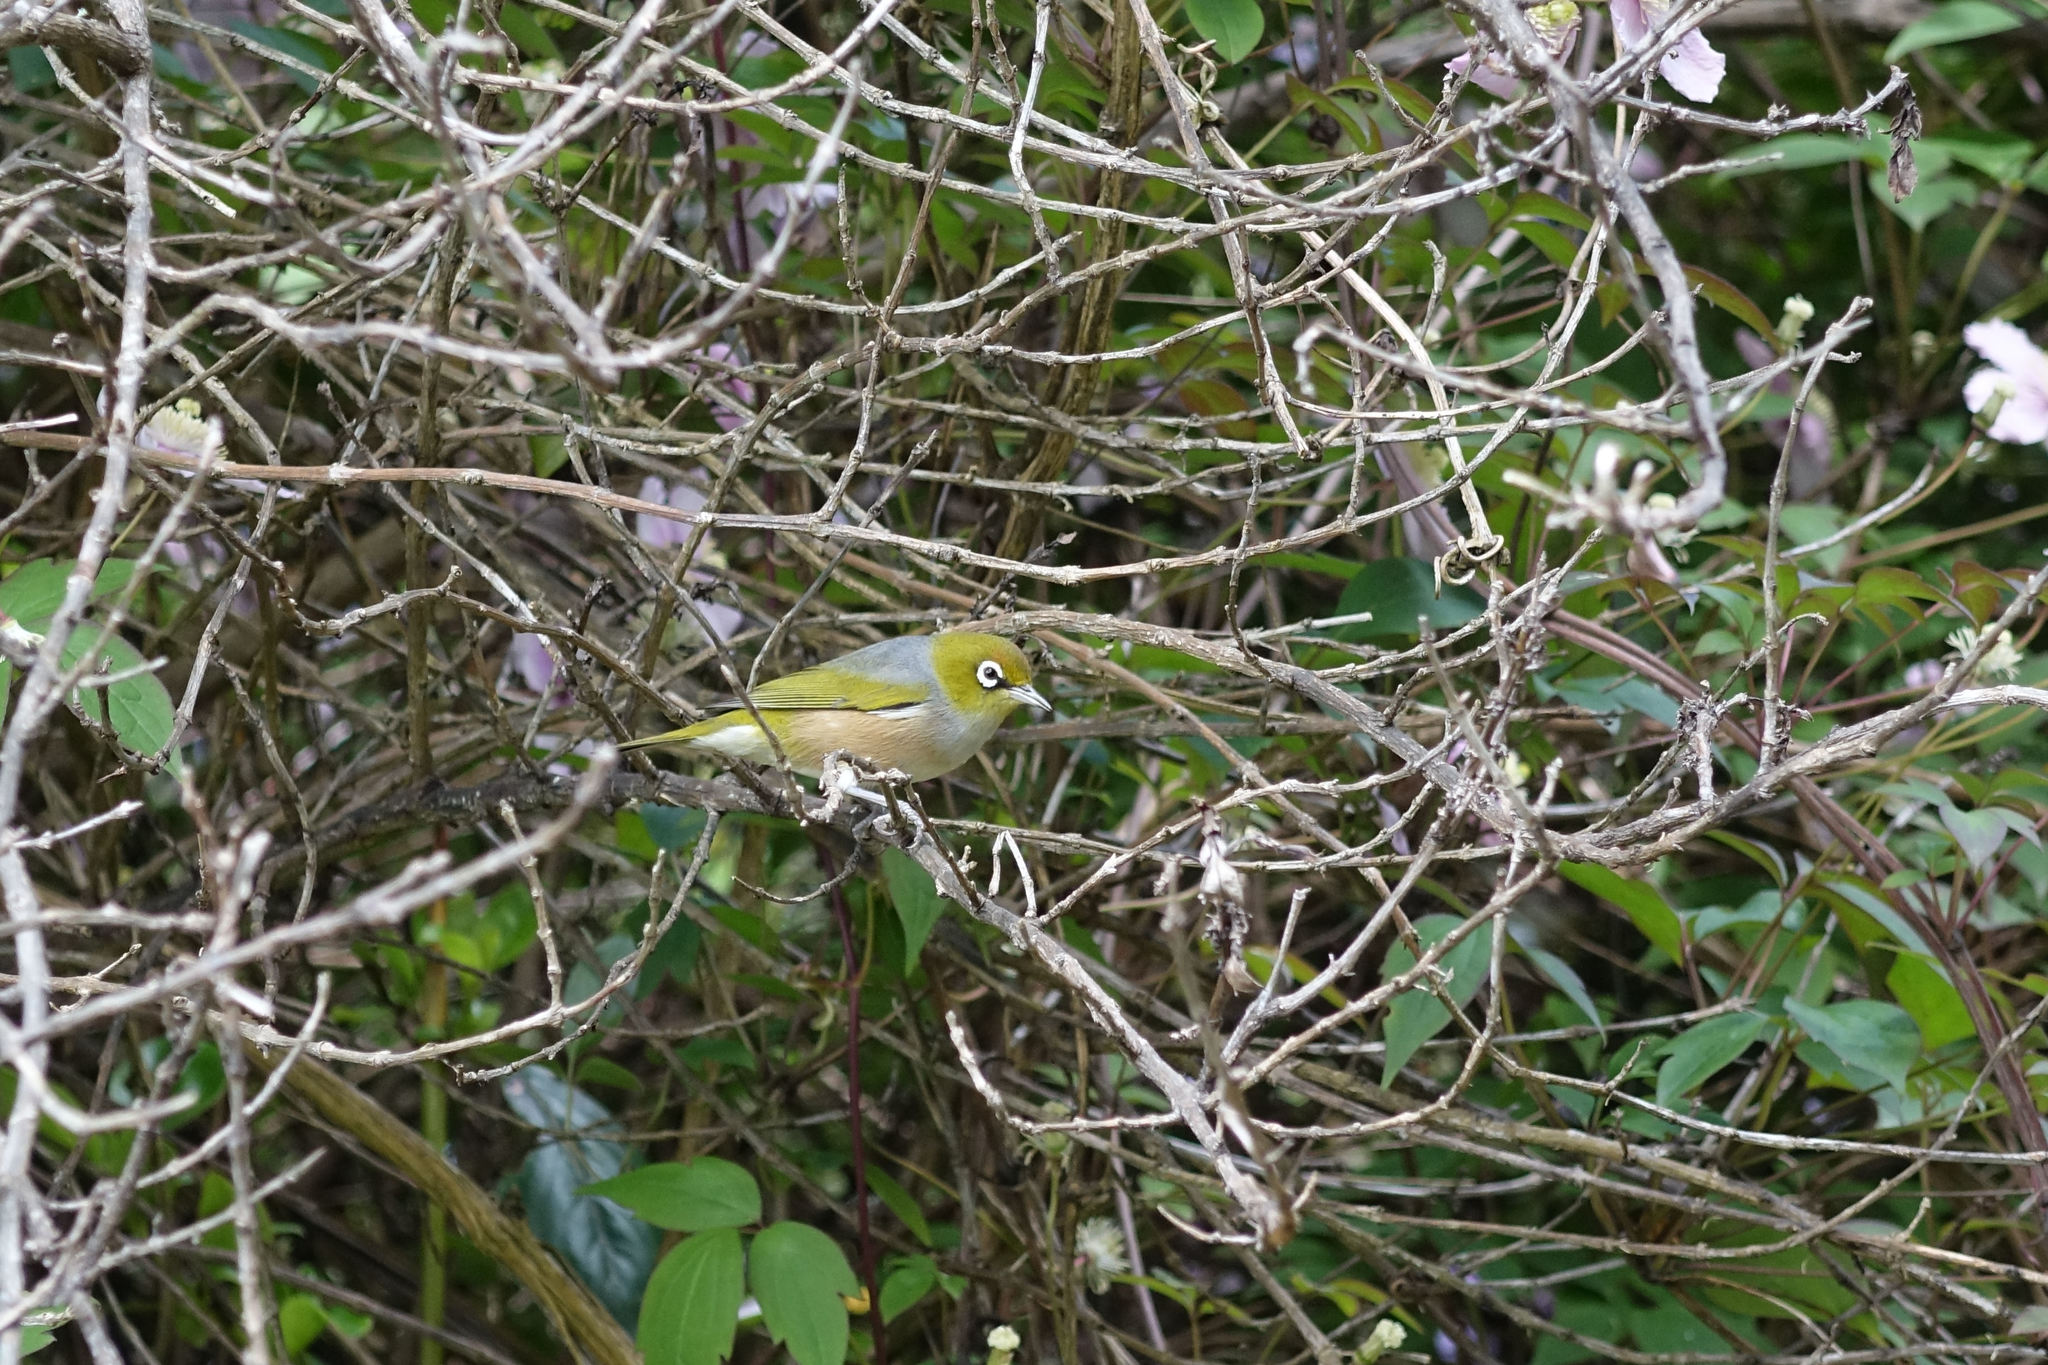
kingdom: Animalia
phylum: Chordata
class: Aves
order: Passeriformes
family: Zosteropidae
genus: Zosterops
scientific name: Zosterops lateralis
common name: Silvereye
